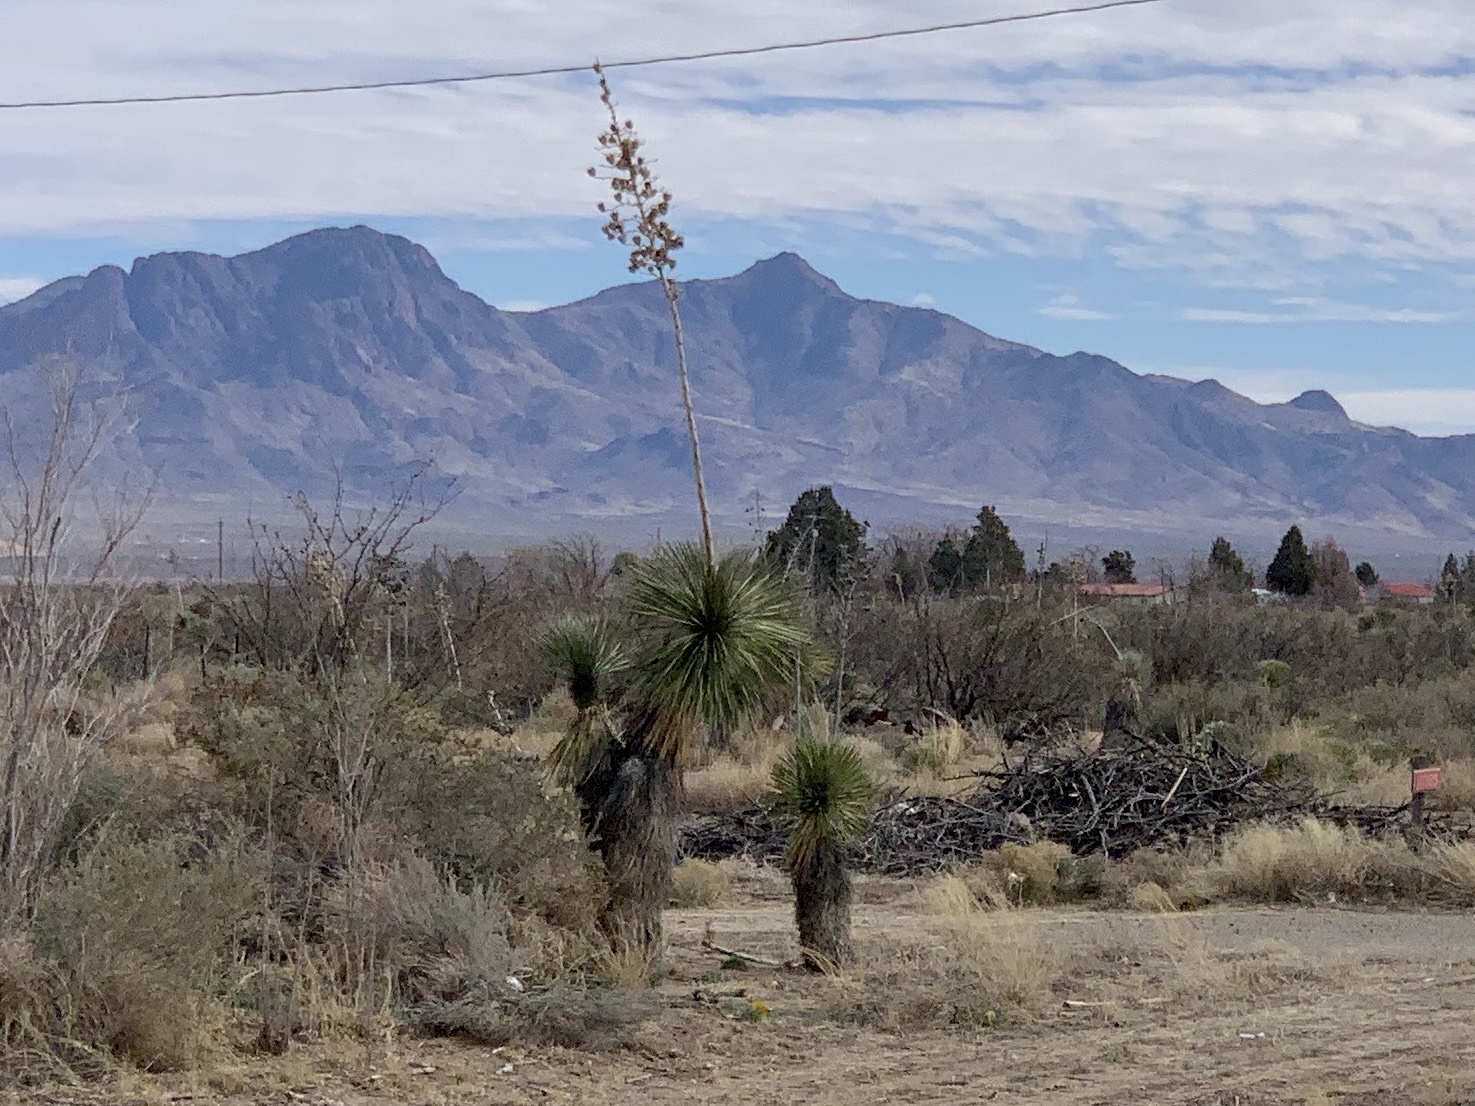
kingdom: Plantae
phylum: Tracheophyta
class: Liliopsida
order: Asparagales
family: Asparagaceae
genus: Yucca
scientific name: Yucca elata
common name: Palmella
